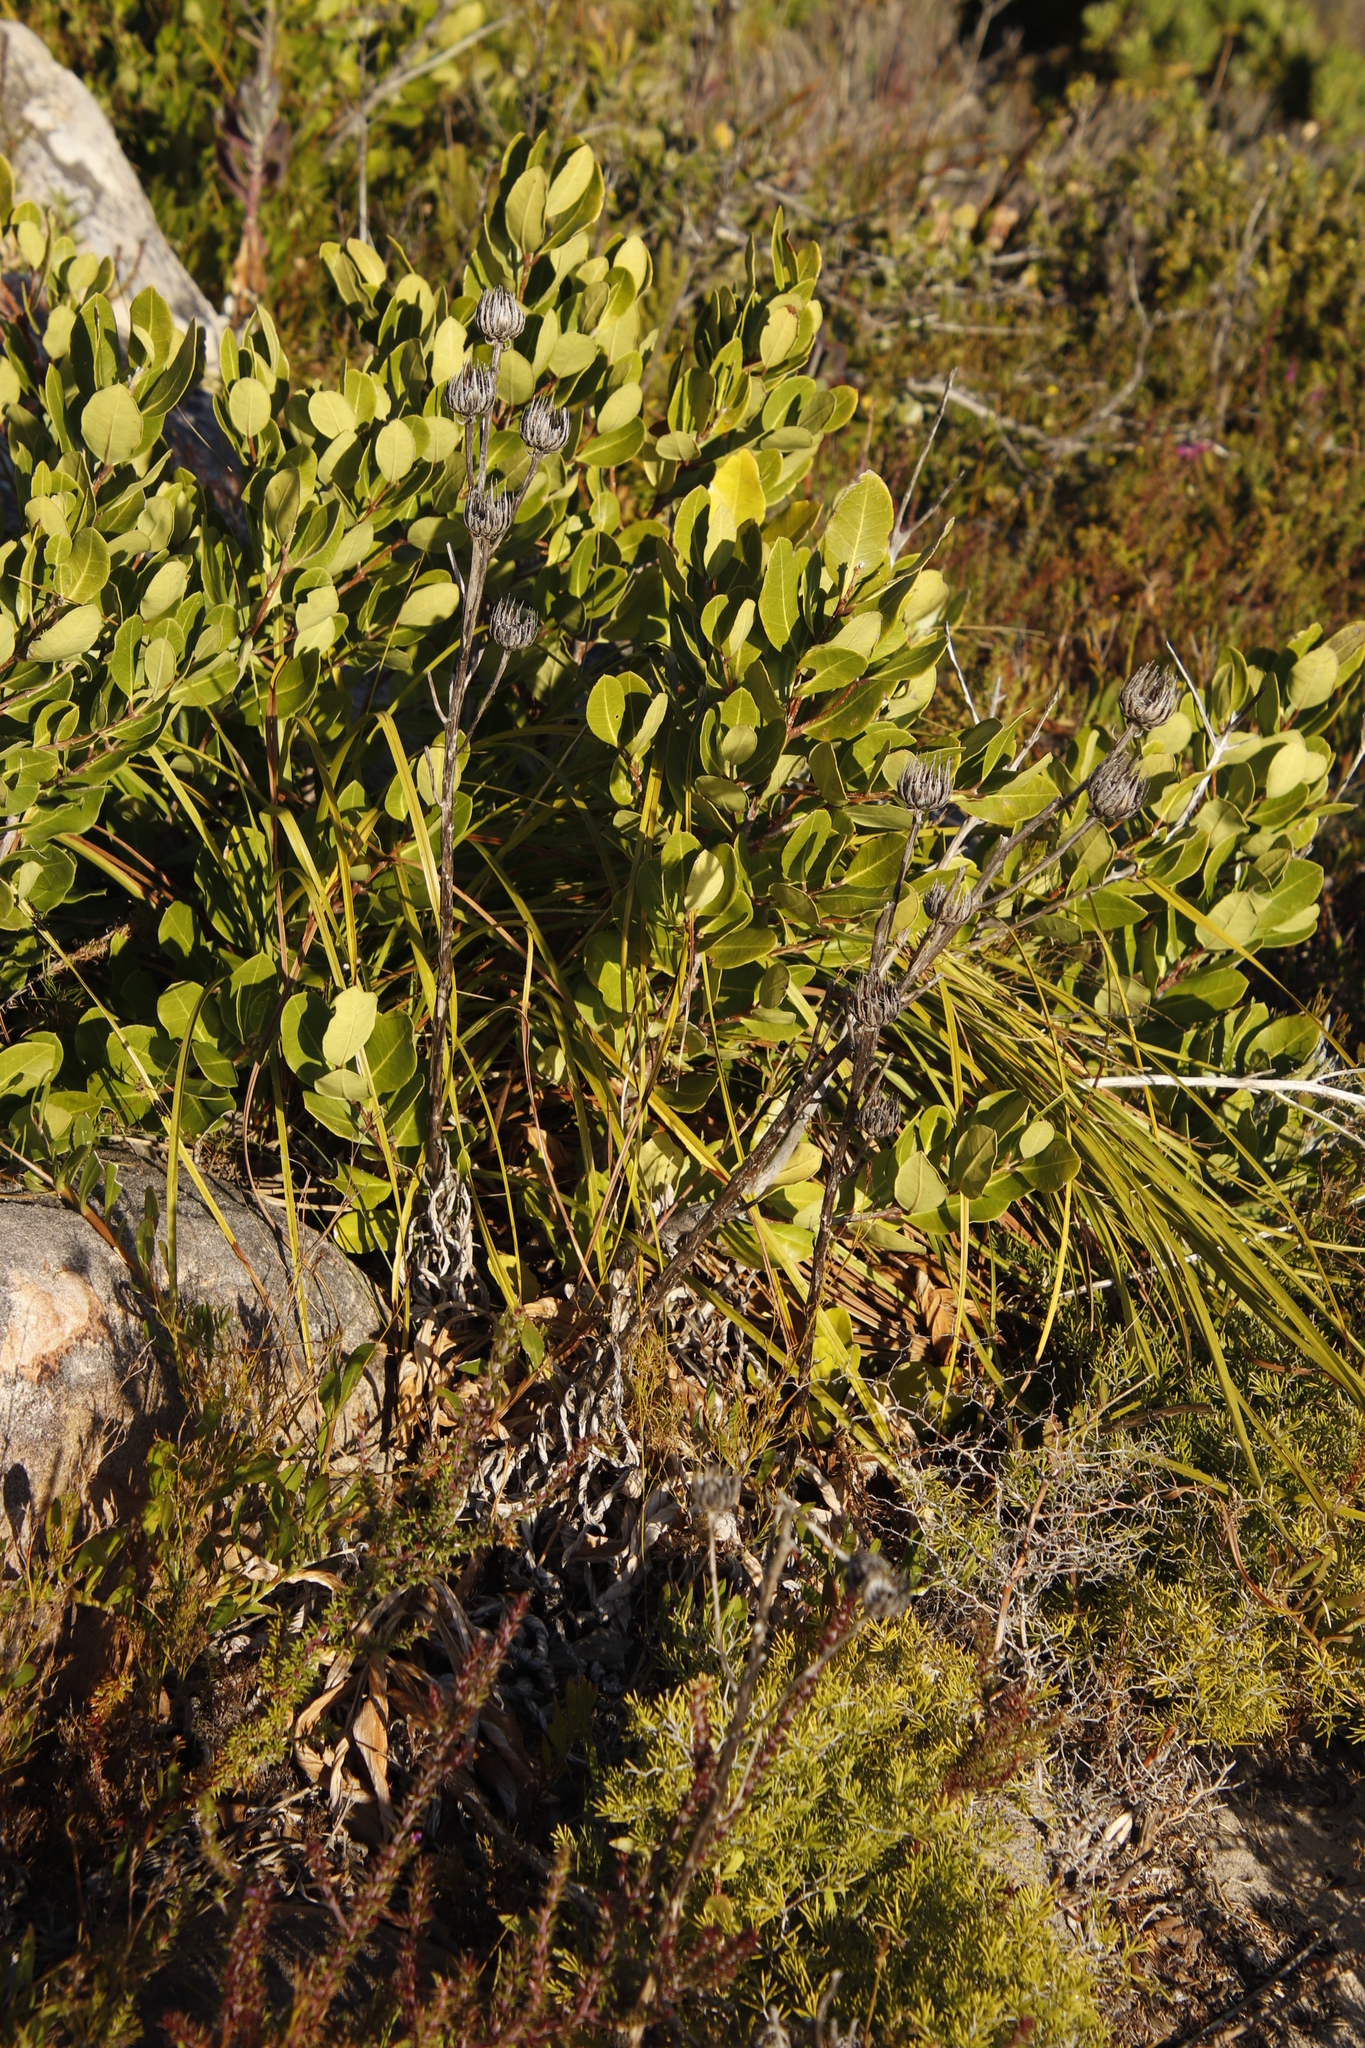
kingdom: Plantae
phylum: Tracheophyta
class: Magnoliopsida
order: Asterales
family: Asteraceae
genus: Berkheya
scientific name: Berkheya herbacea
